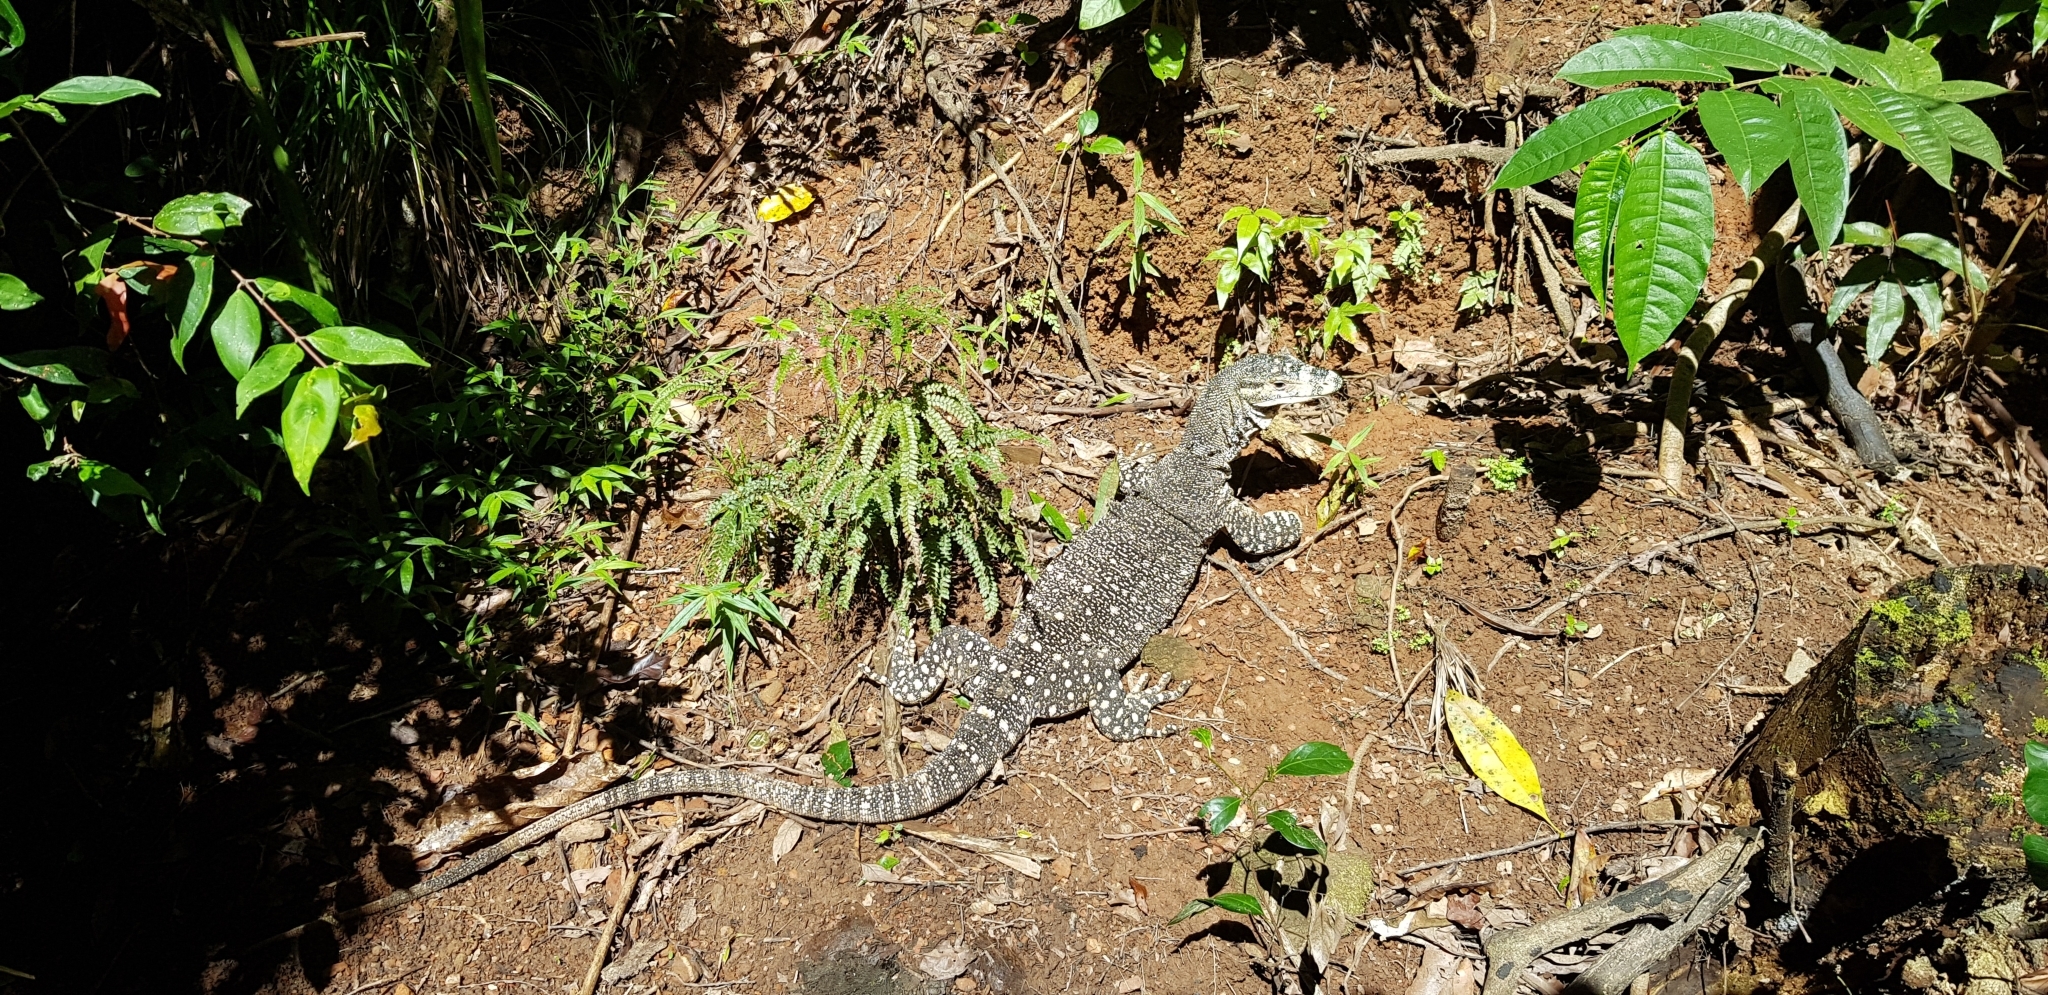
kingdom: Animalia
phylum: Chordata
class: Squamata
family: Varanidae
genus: Varanus
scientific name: Varanus varius
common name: Lace monitor
